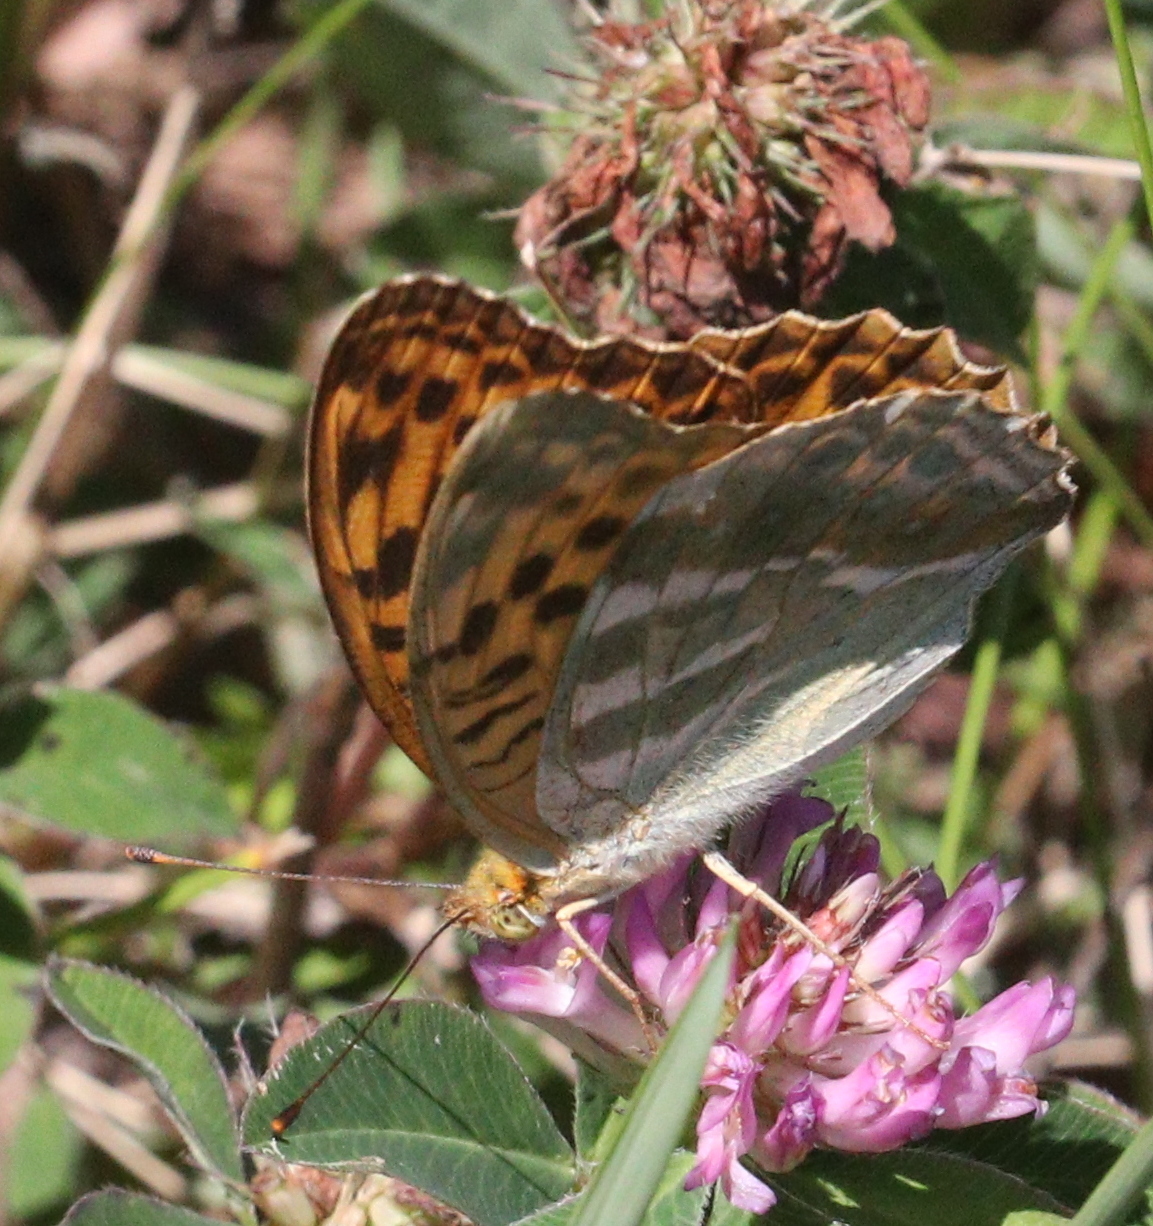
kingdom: Animalia
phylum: Arthropoda
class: Insecta
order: Lepidoptera
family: Nymphalidae
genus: Argynnis
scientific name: Argynnis paphia
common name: Silver-washed fritillary
